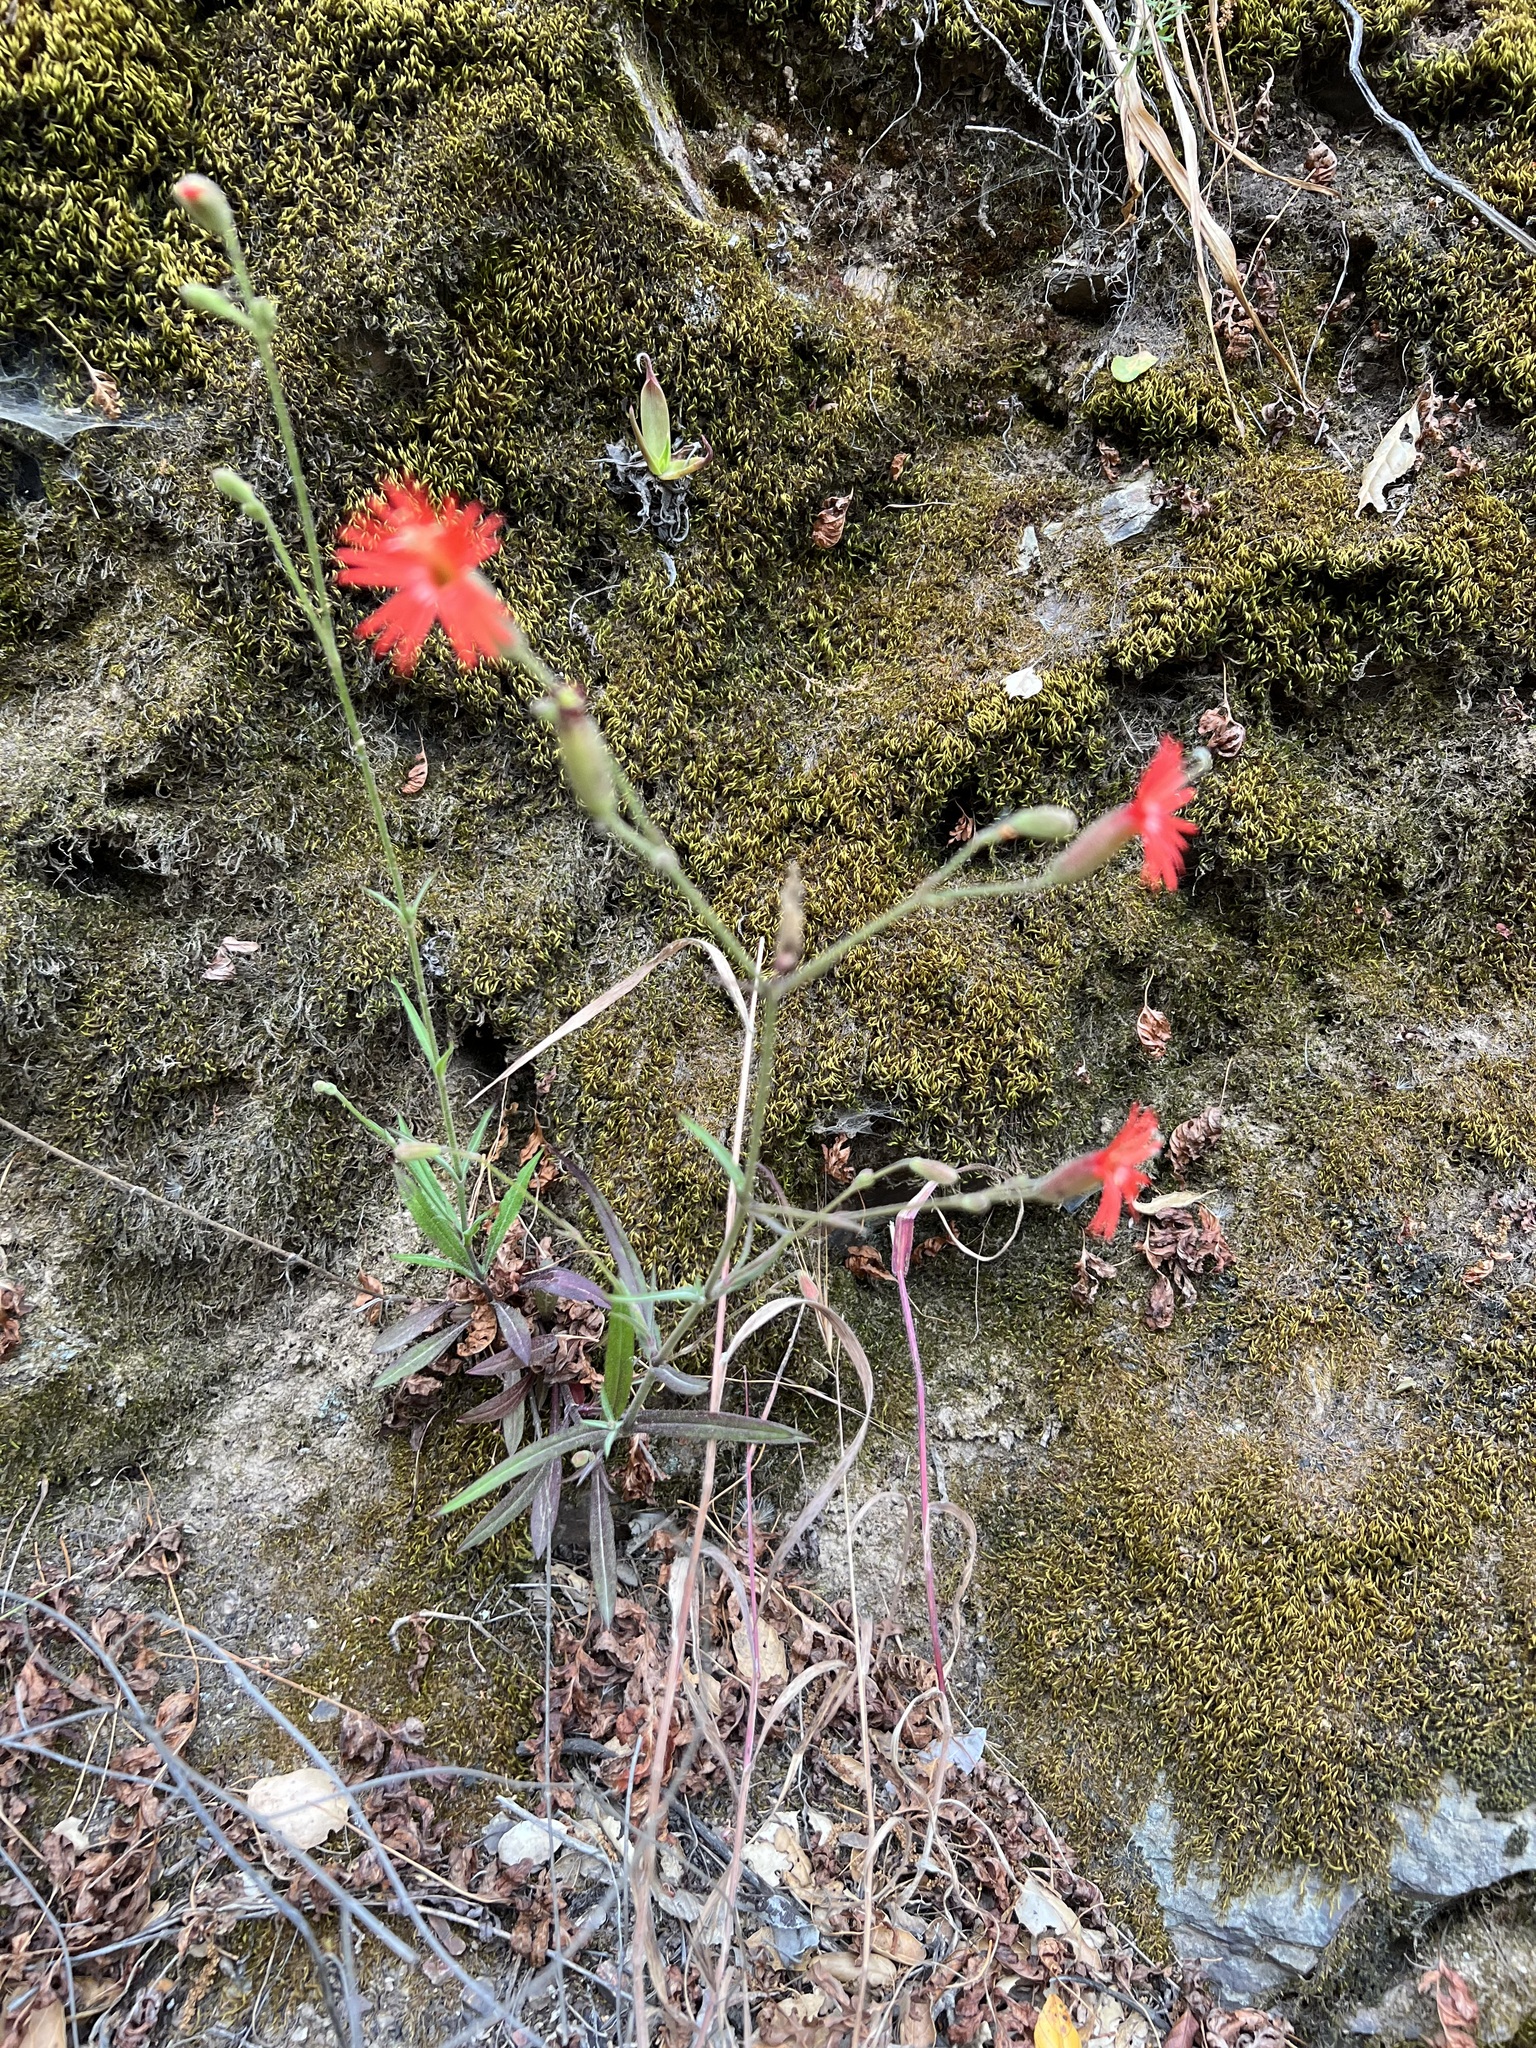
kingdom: Plantae
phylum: Tracheophyta
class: Magnoliopsida
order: Caryophyllales
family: Caryophyllaceae
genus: Silene
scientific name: Silene laciniata
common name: Indian-pink
